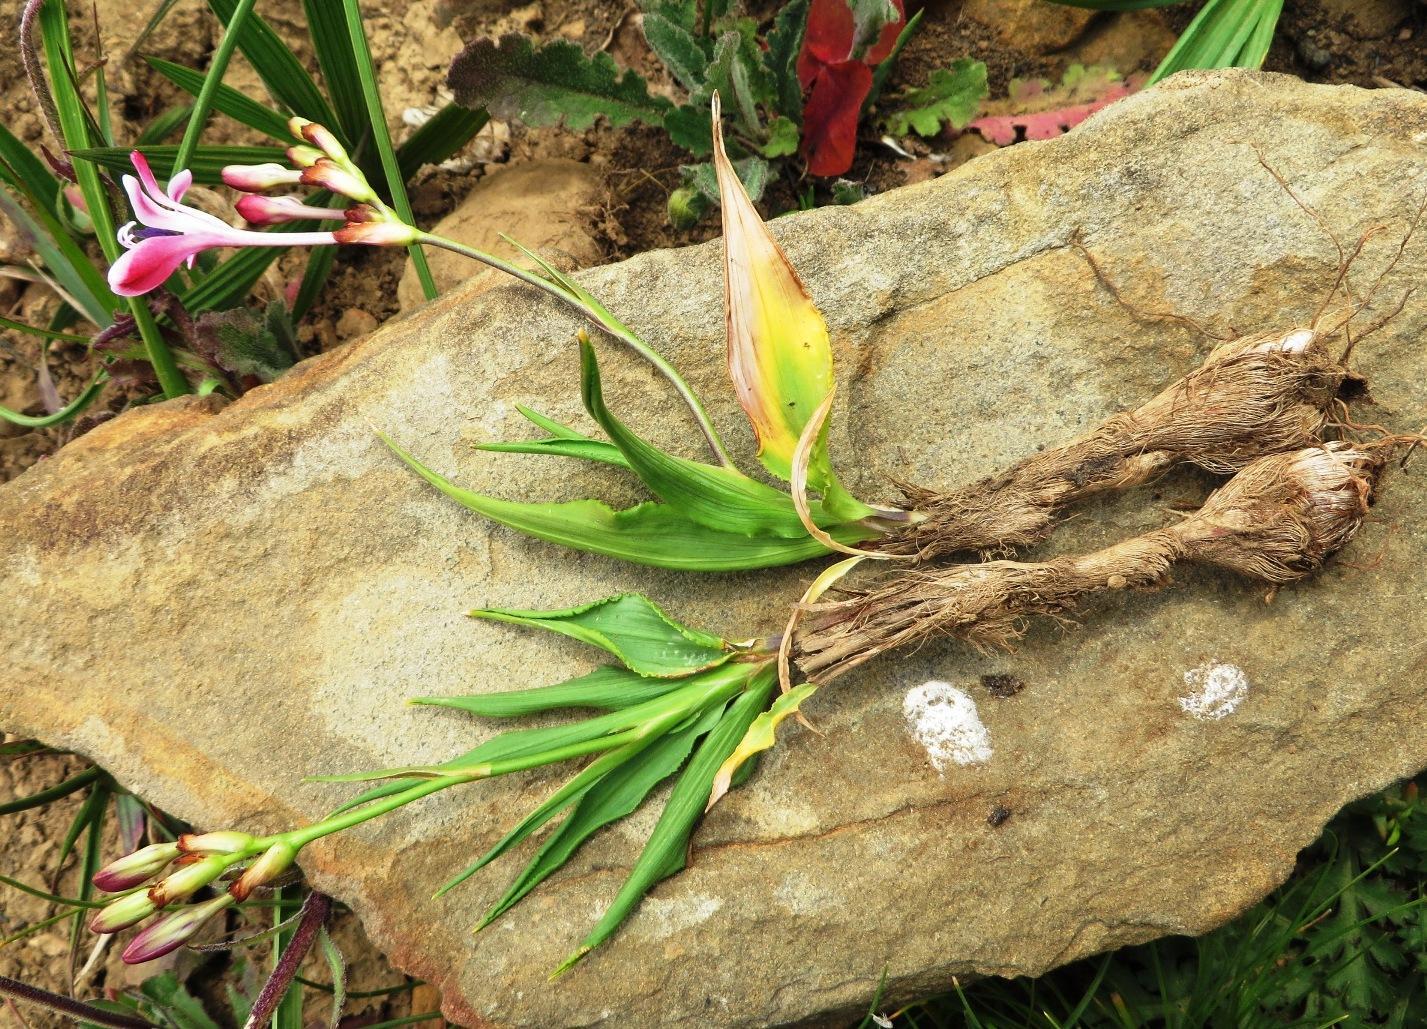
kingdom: Plantae
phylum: Tracheophyta
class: Liliopsida
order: Asparagales
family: Iridaceae
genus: Tritonia
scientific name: Tritonia undulata
